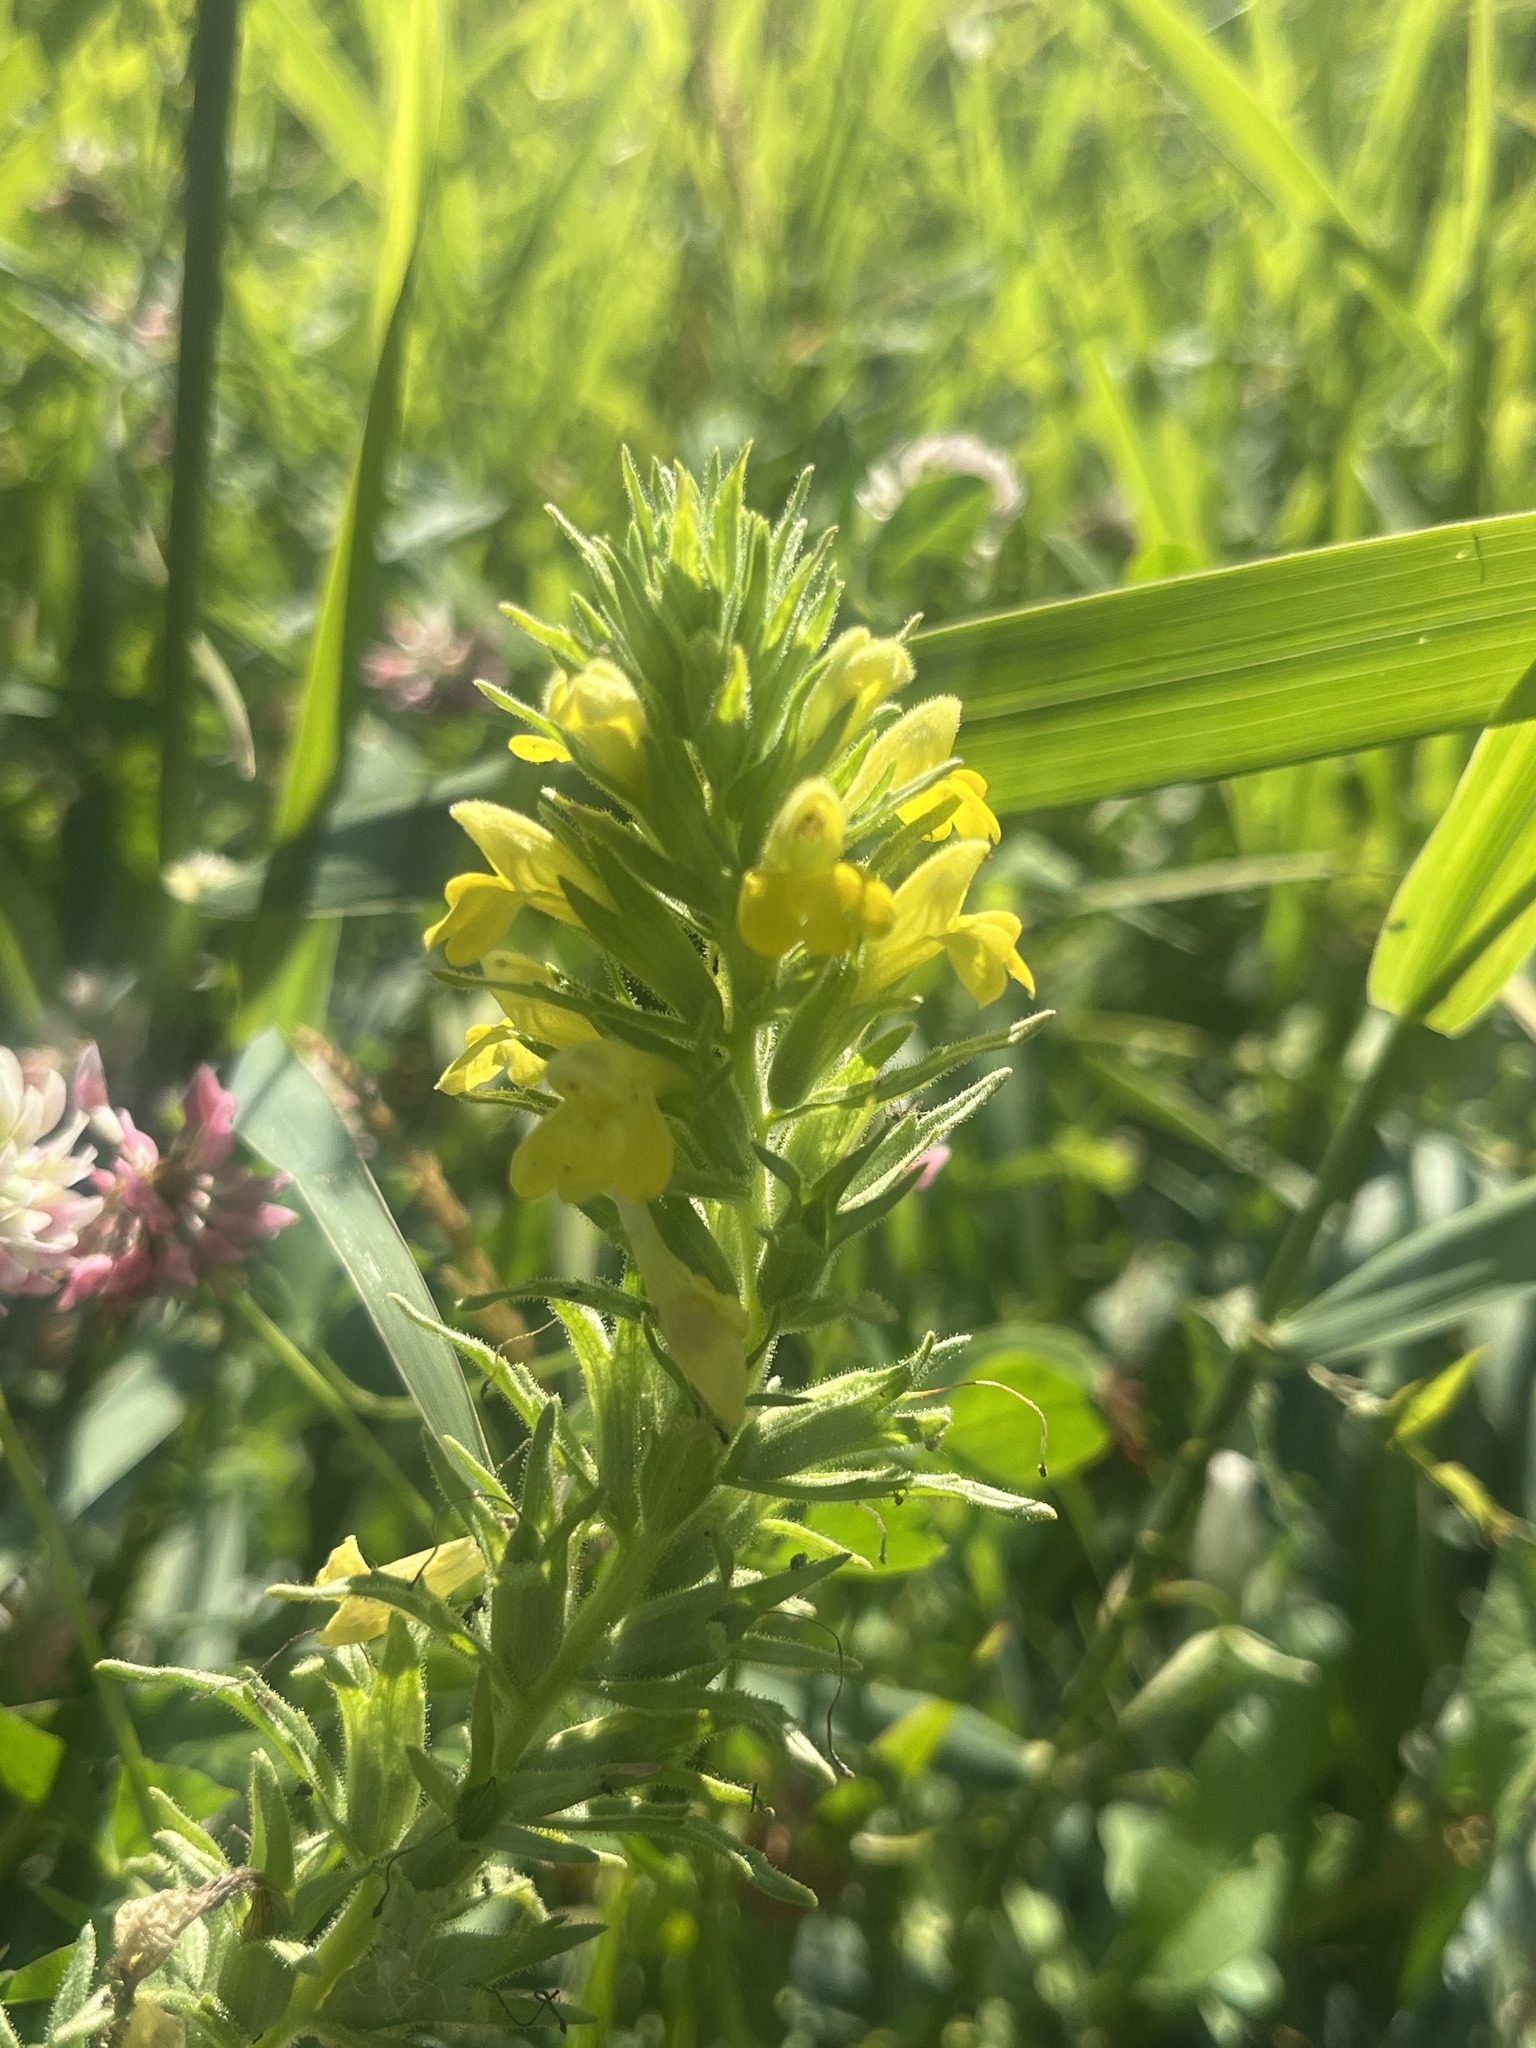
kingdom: Plantae
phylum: Tracheophyta
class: Magnoliopsida
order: Lamiales
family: Orobanchaceae
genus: Bellardia
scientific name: Bellardia viscosa
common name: Sticky parentucellia
